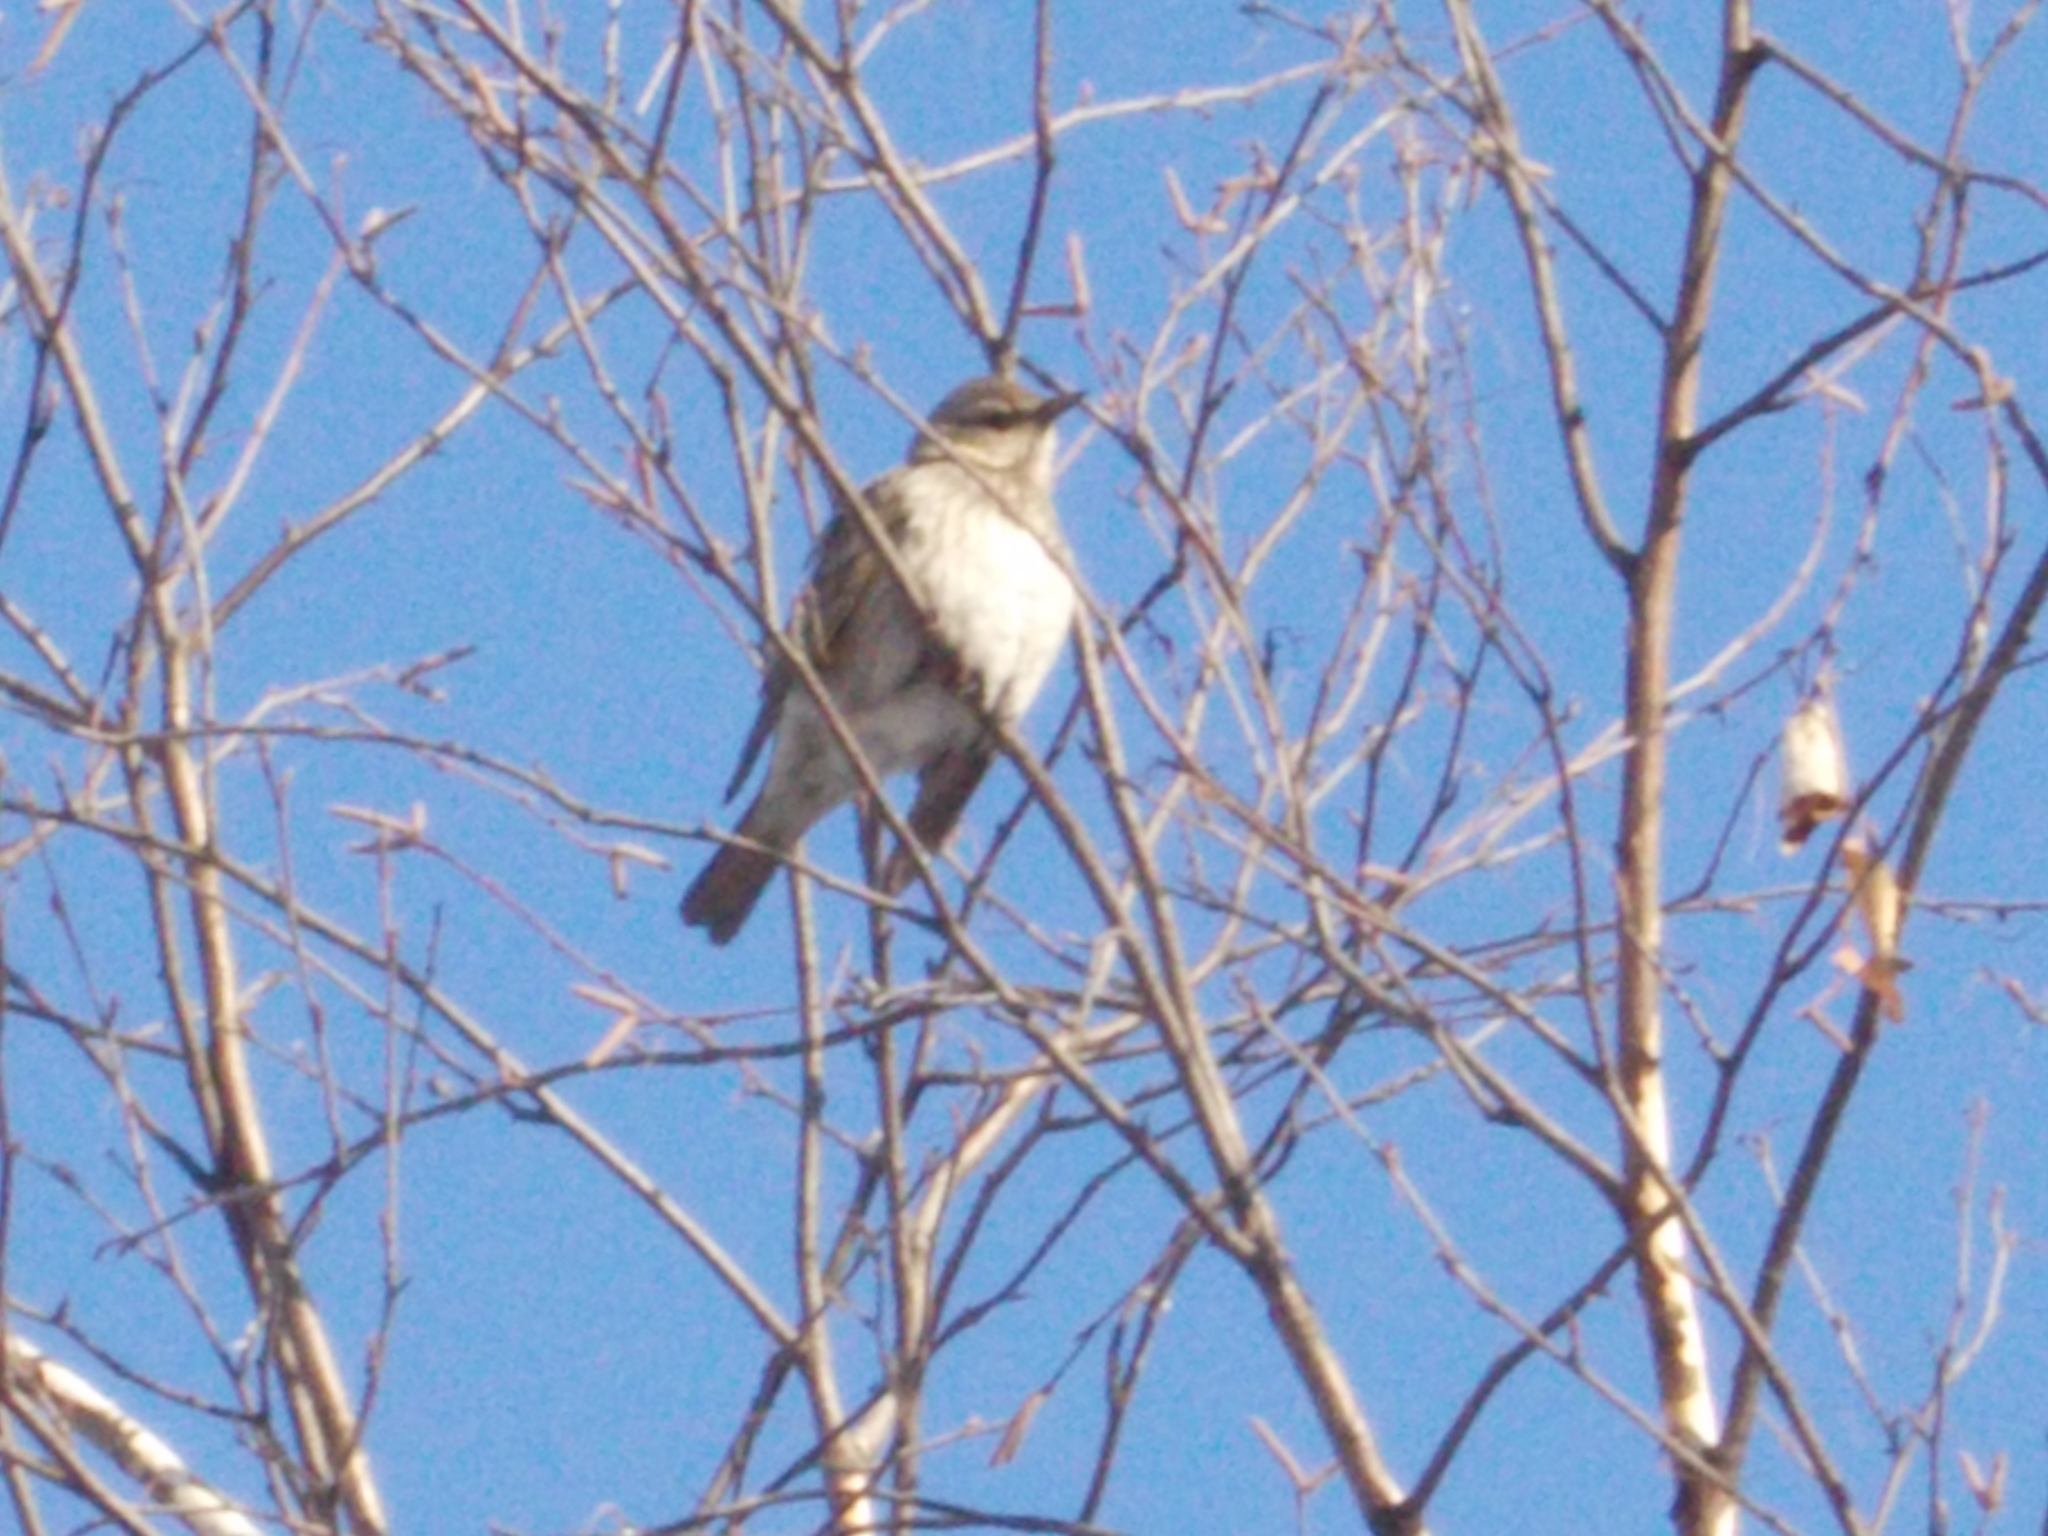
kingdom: Animalia
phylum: Chordata
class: Aves
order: Passeriformes
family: Turdidae
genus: Turdus
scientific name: Turdus atrogularis
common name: Black-throated thrush
